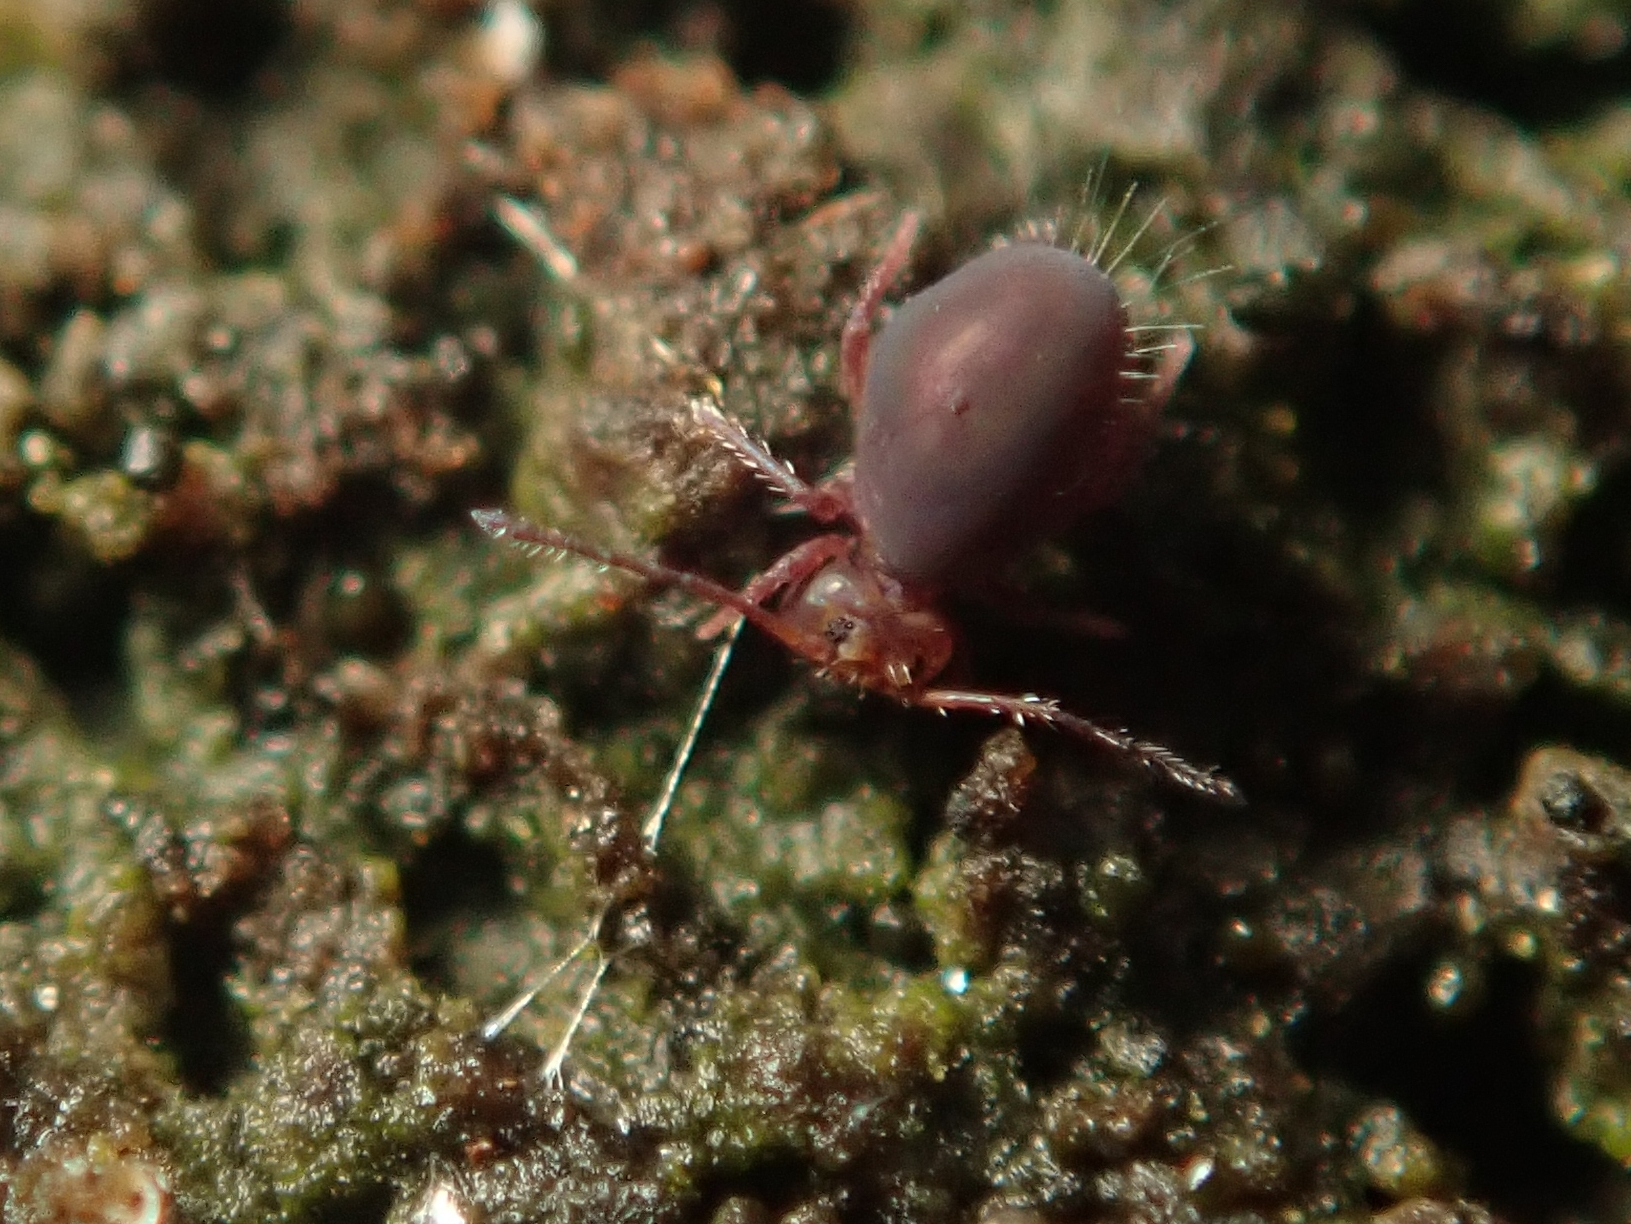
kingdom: Animalia
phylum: Arthropoda
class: Collembola
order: Symphypleona
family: Dicyrtomidae
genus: Dicyrtoma
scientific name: Dicyrtoma fusca
